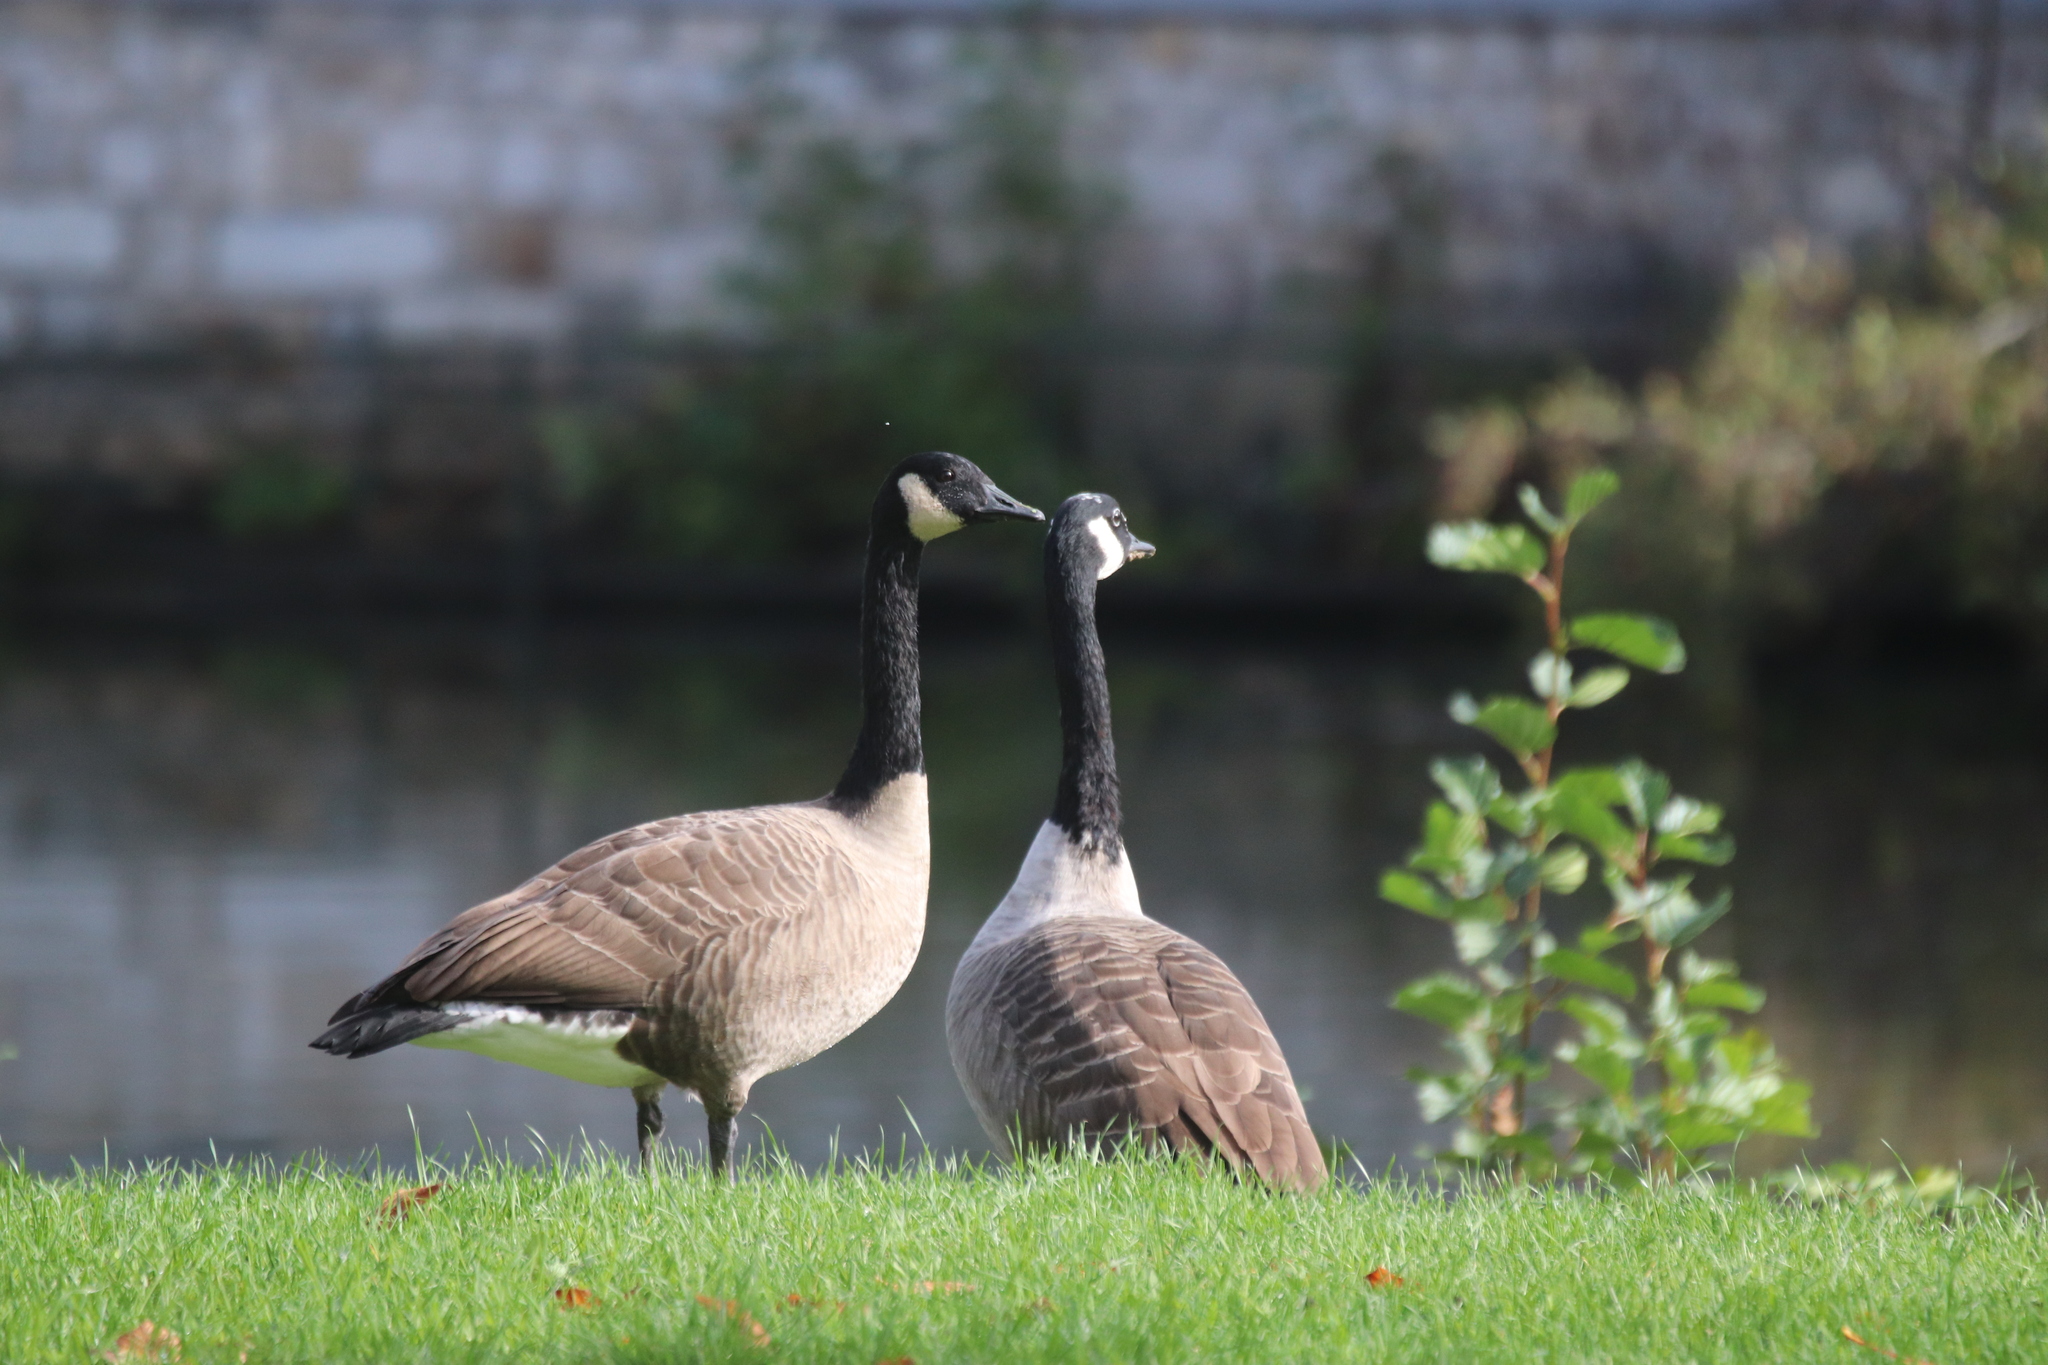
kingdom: Animalia
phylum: Chordata
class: Aves
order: Anseriformes
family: Anatidae
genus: Branta
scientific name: Branta canadensis
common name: Canada goose
